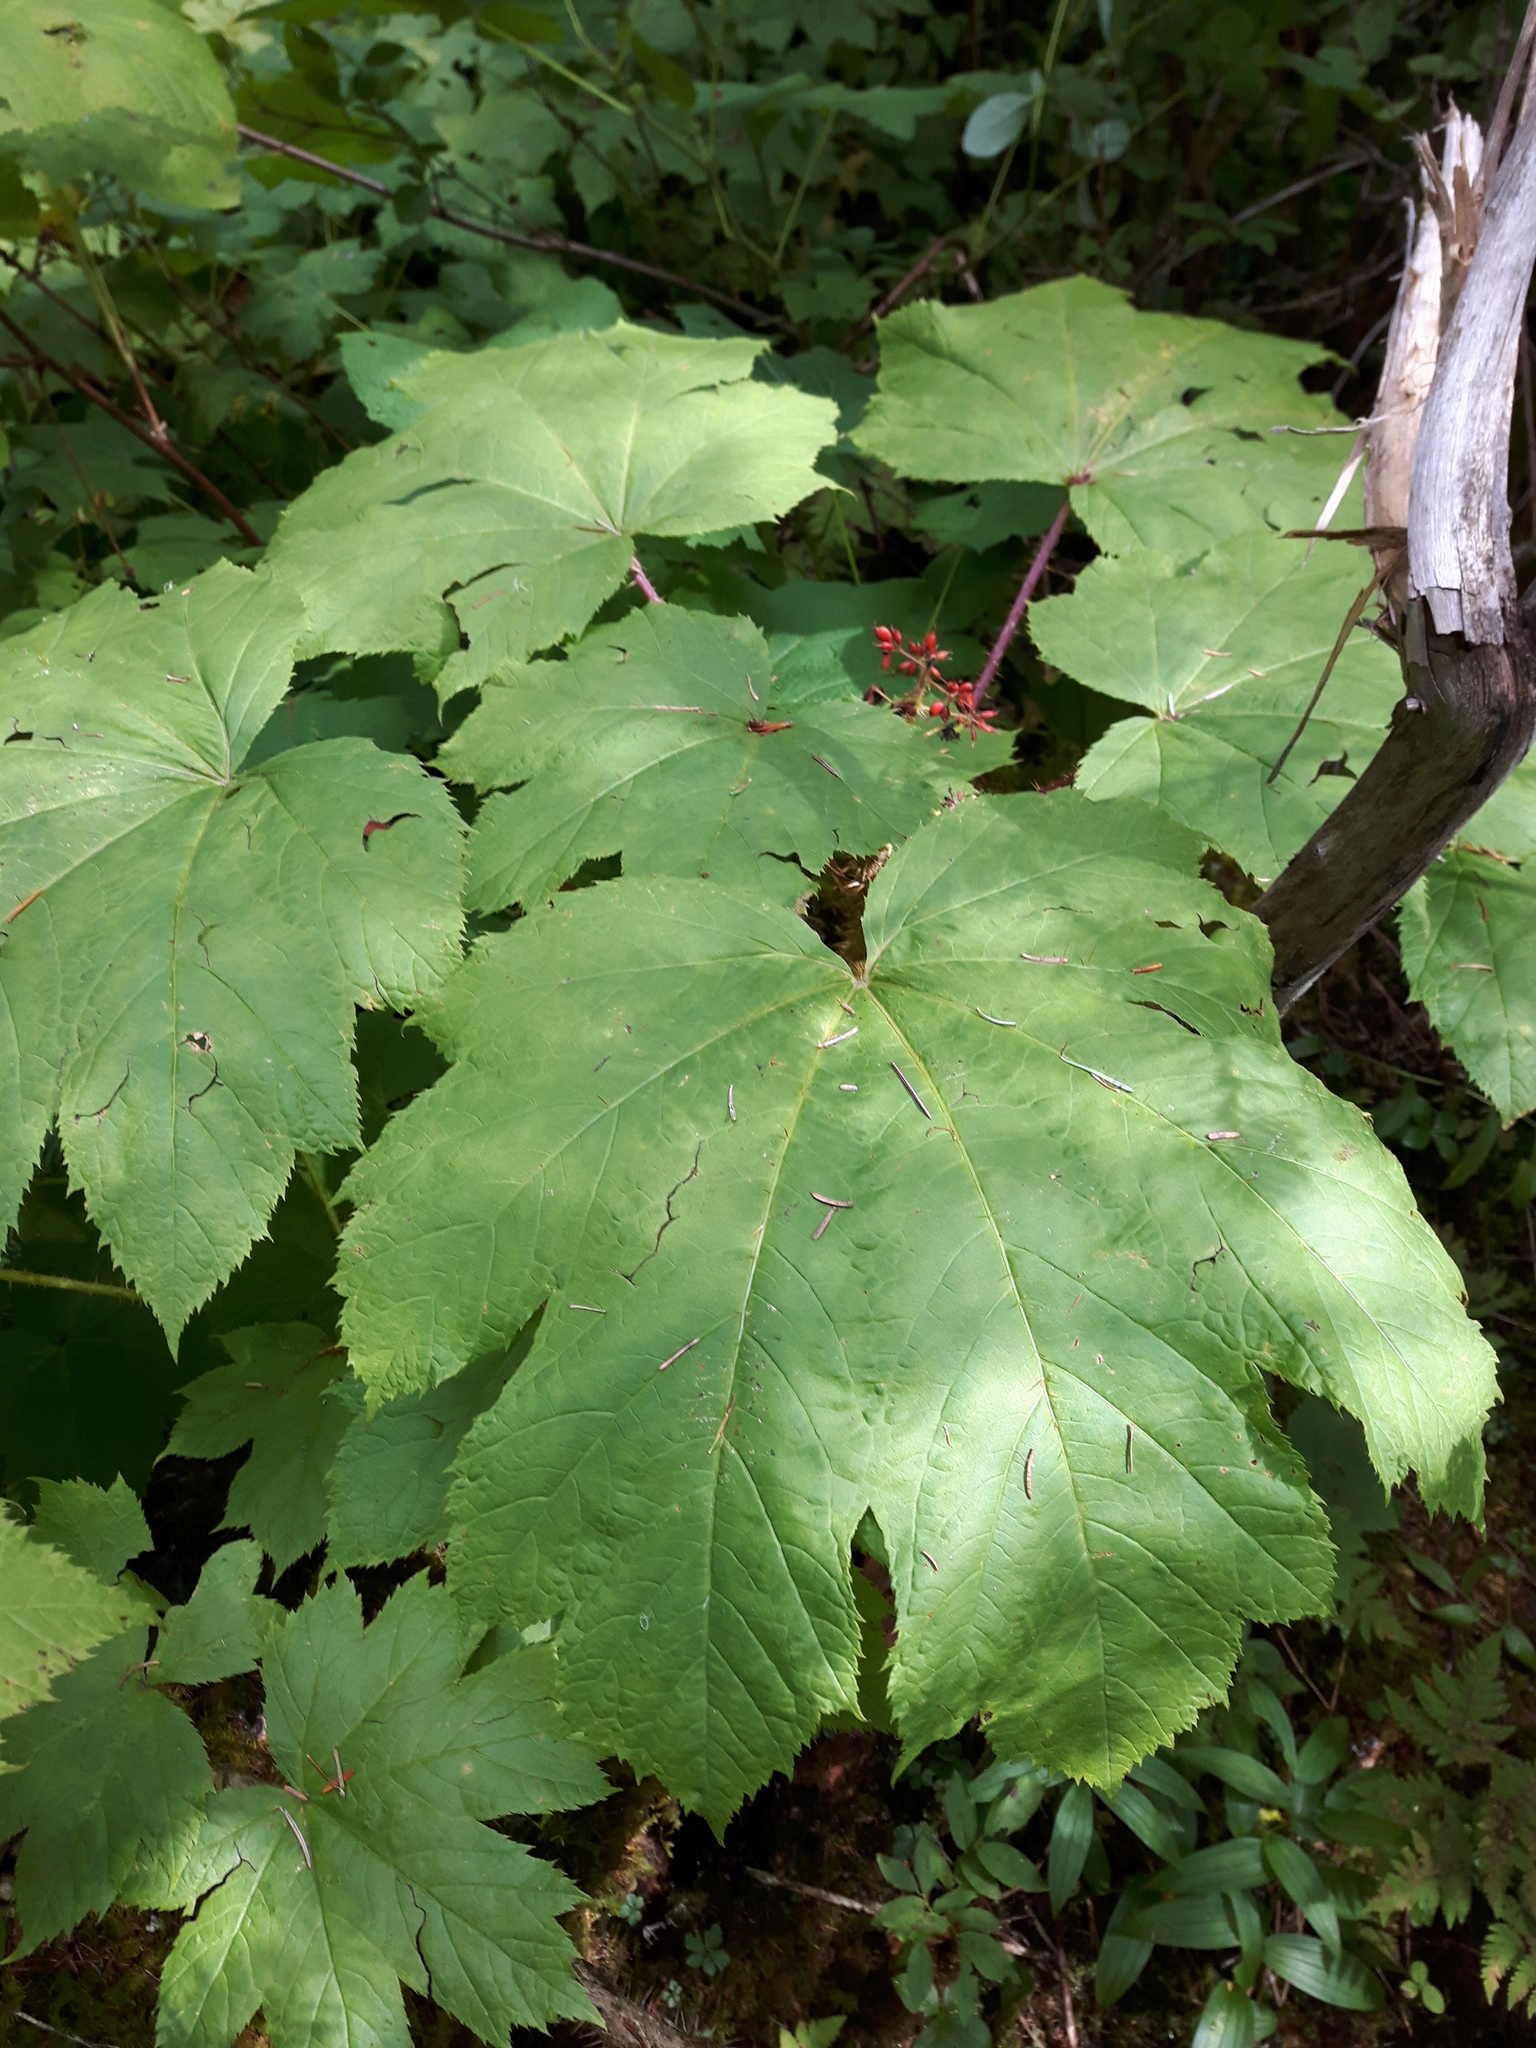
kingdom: Plantae
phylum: Tracheophyta
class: Magnoliopsida
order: Apiales
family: Araliaceae
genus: Oplopanax
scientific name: Oplopanax horridus
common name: Devil's walking-stick
